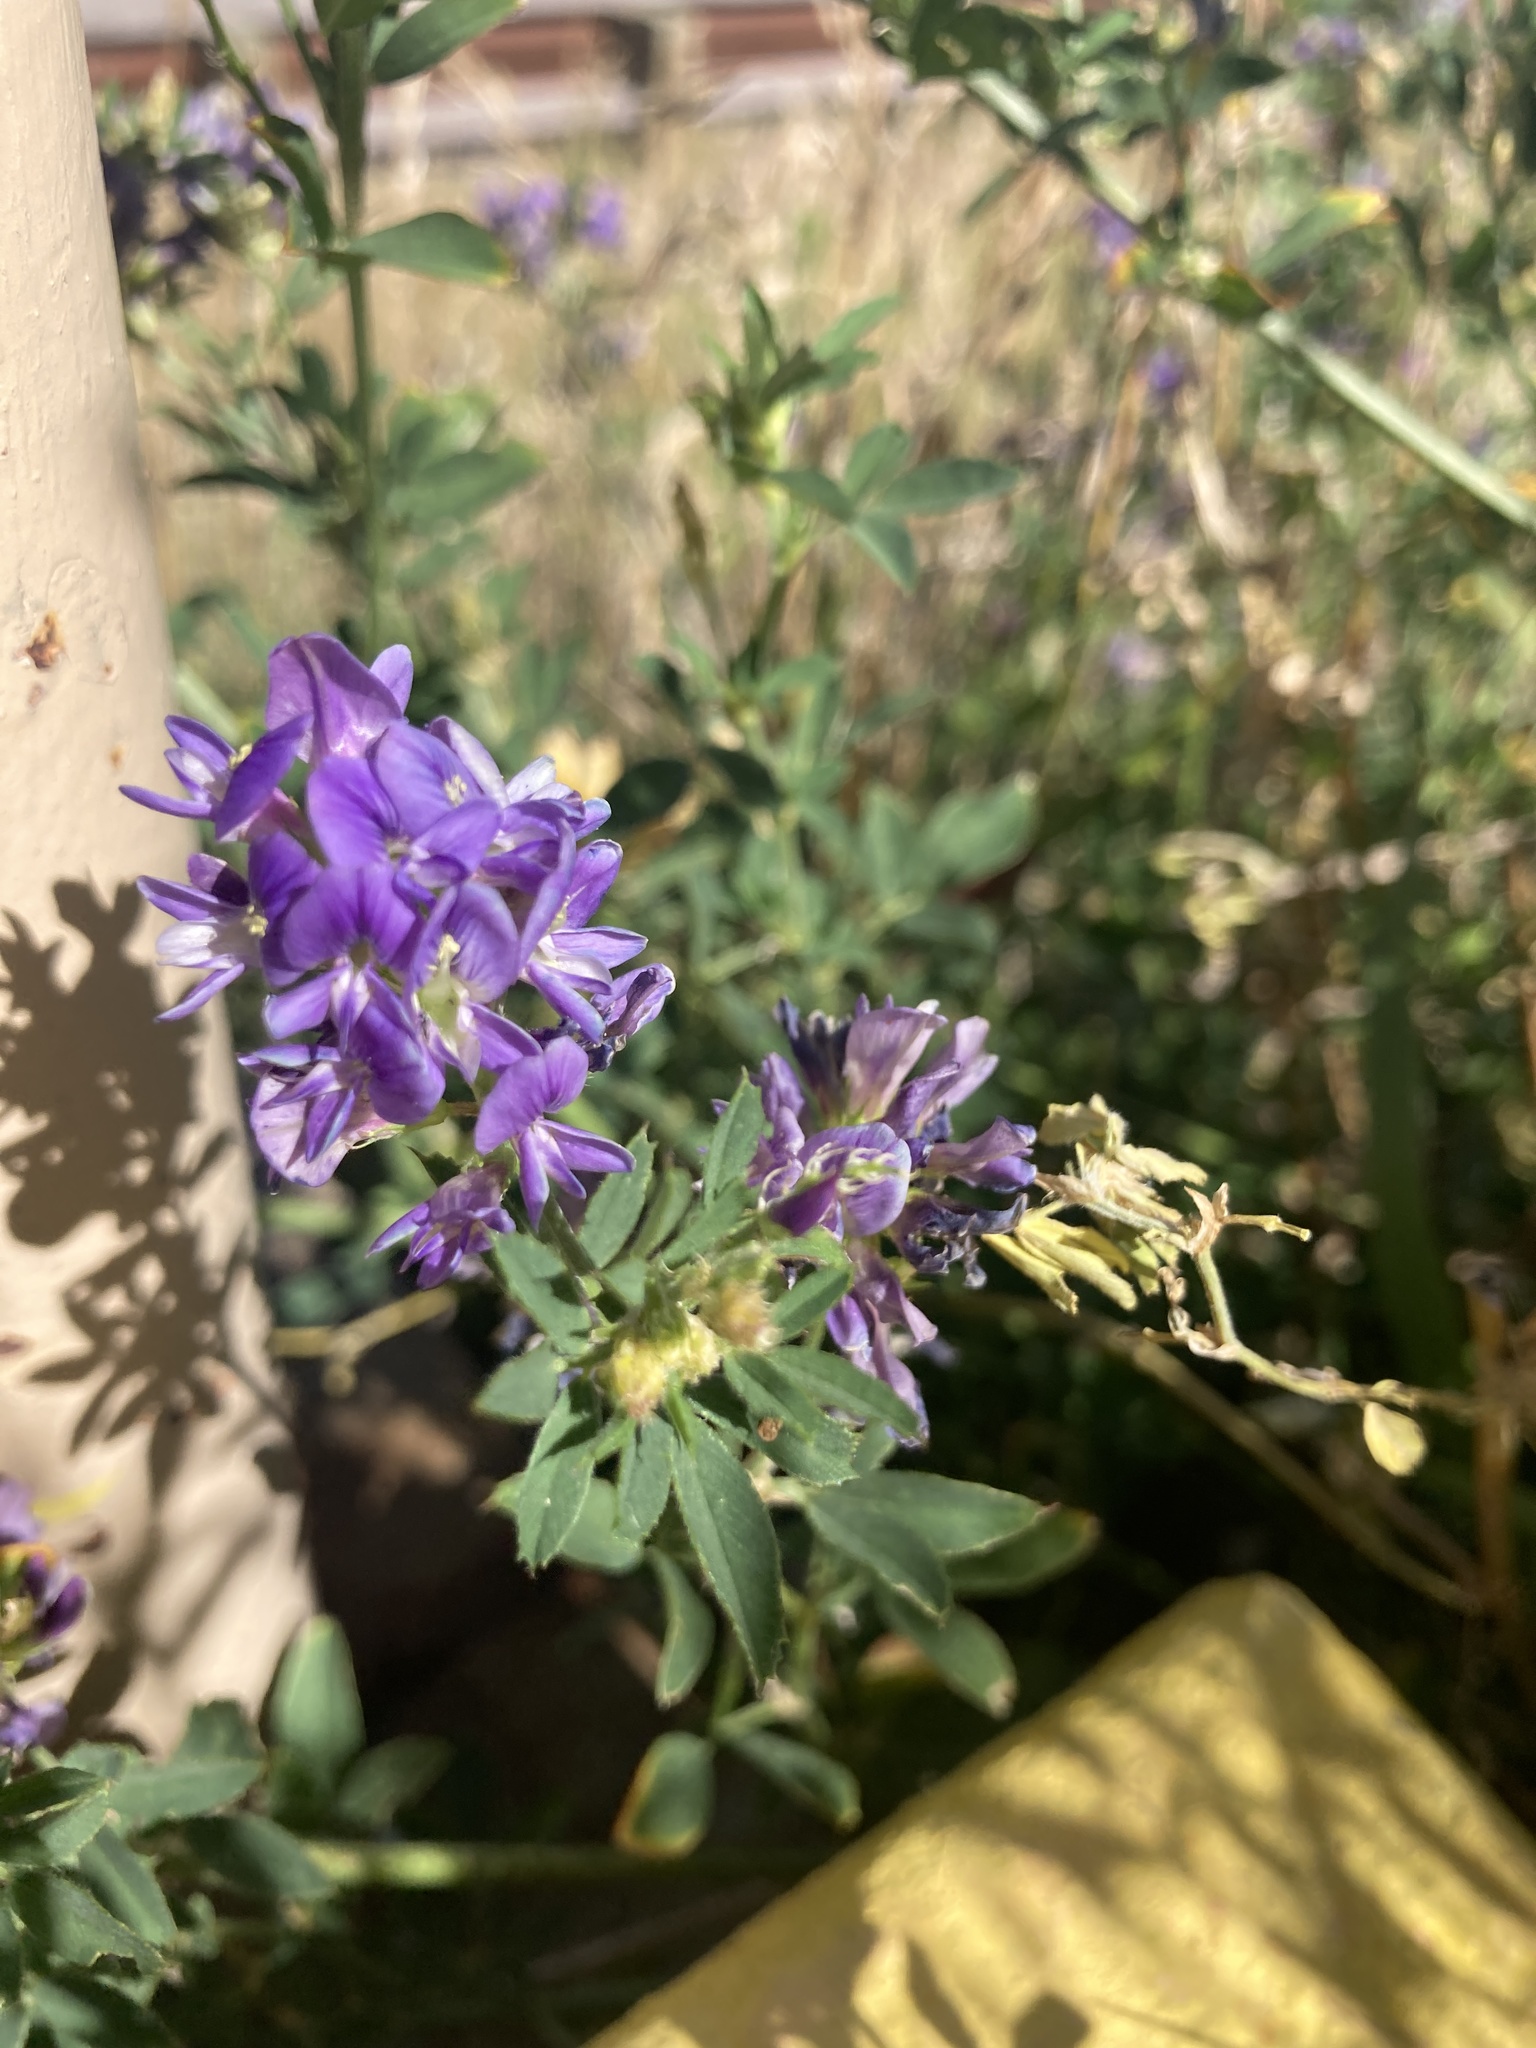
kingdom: Plantae
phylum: Tracheophyta
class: Magnoliopsida
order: Fabales
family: Fabaceae
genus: Medicago
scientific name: Medicago sativa
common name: Alfalfa
